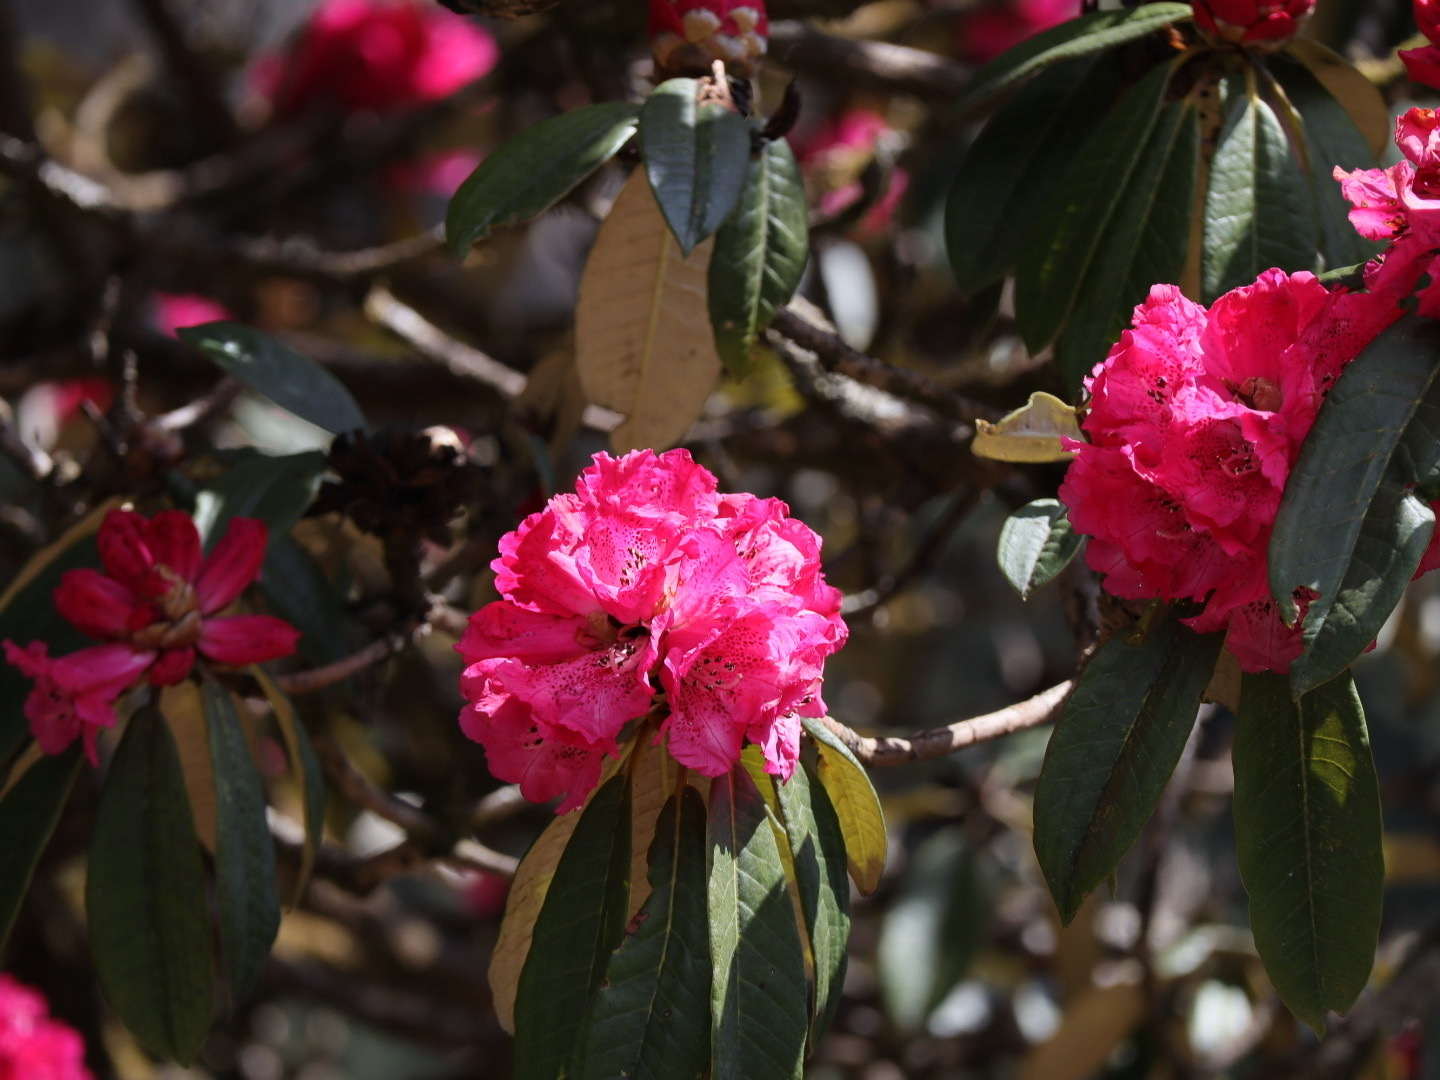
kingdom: Plantae
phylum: Tracheophyta
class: Magnoliopsida
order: Ericales
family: Ericaceae
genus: Rhododendron
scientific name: Rhododendron arboreum
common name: Tree rhododendron
